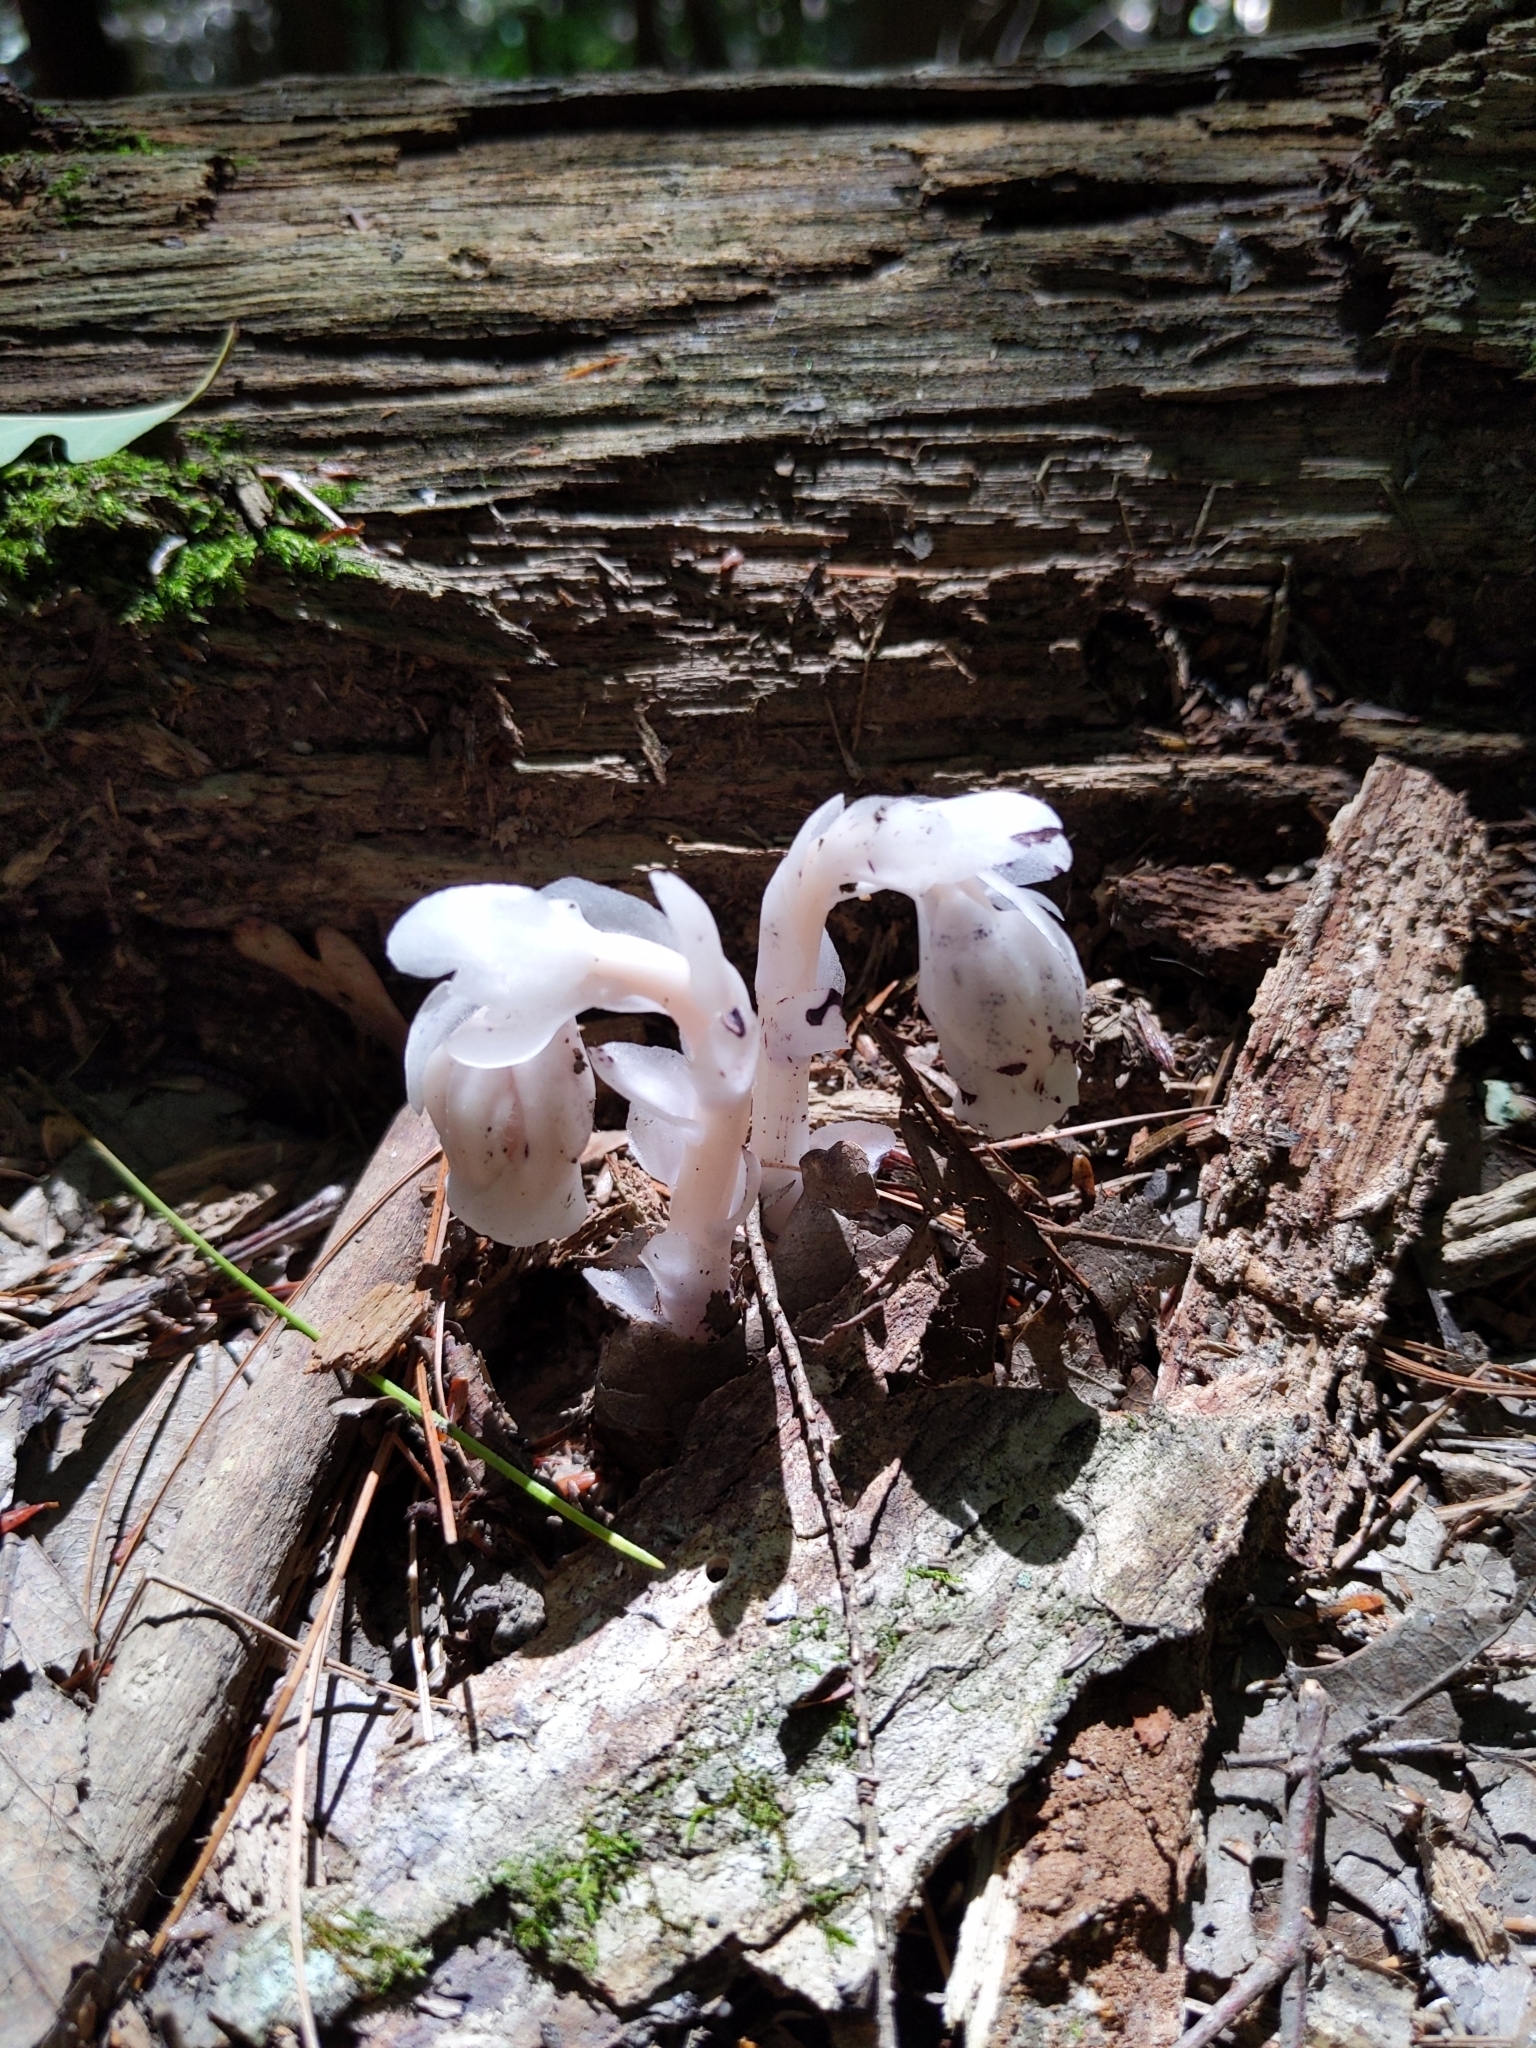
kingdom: Plantae
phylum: Tracheophyta
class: Magnoliopsida
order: Ericales
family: Ericaceae
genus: Monotropa
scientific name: Monotropa uniflora
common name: Convulsion root
